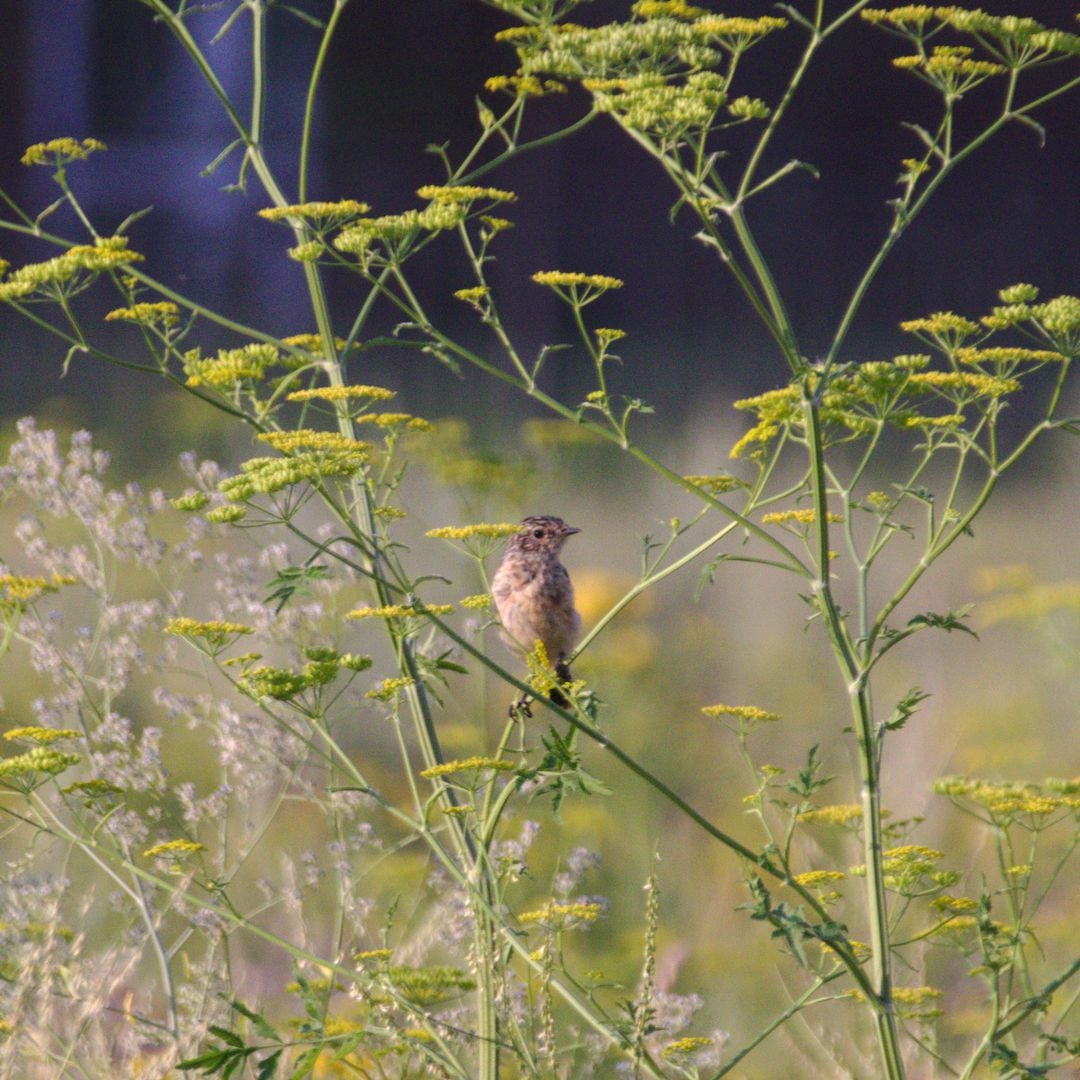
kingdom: Animalia
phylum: Chordata
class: Aves
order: Passeriformes
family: Muscicapidae
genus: Saxicola
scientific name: Saxicola maurus
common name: Siberian stonechat
